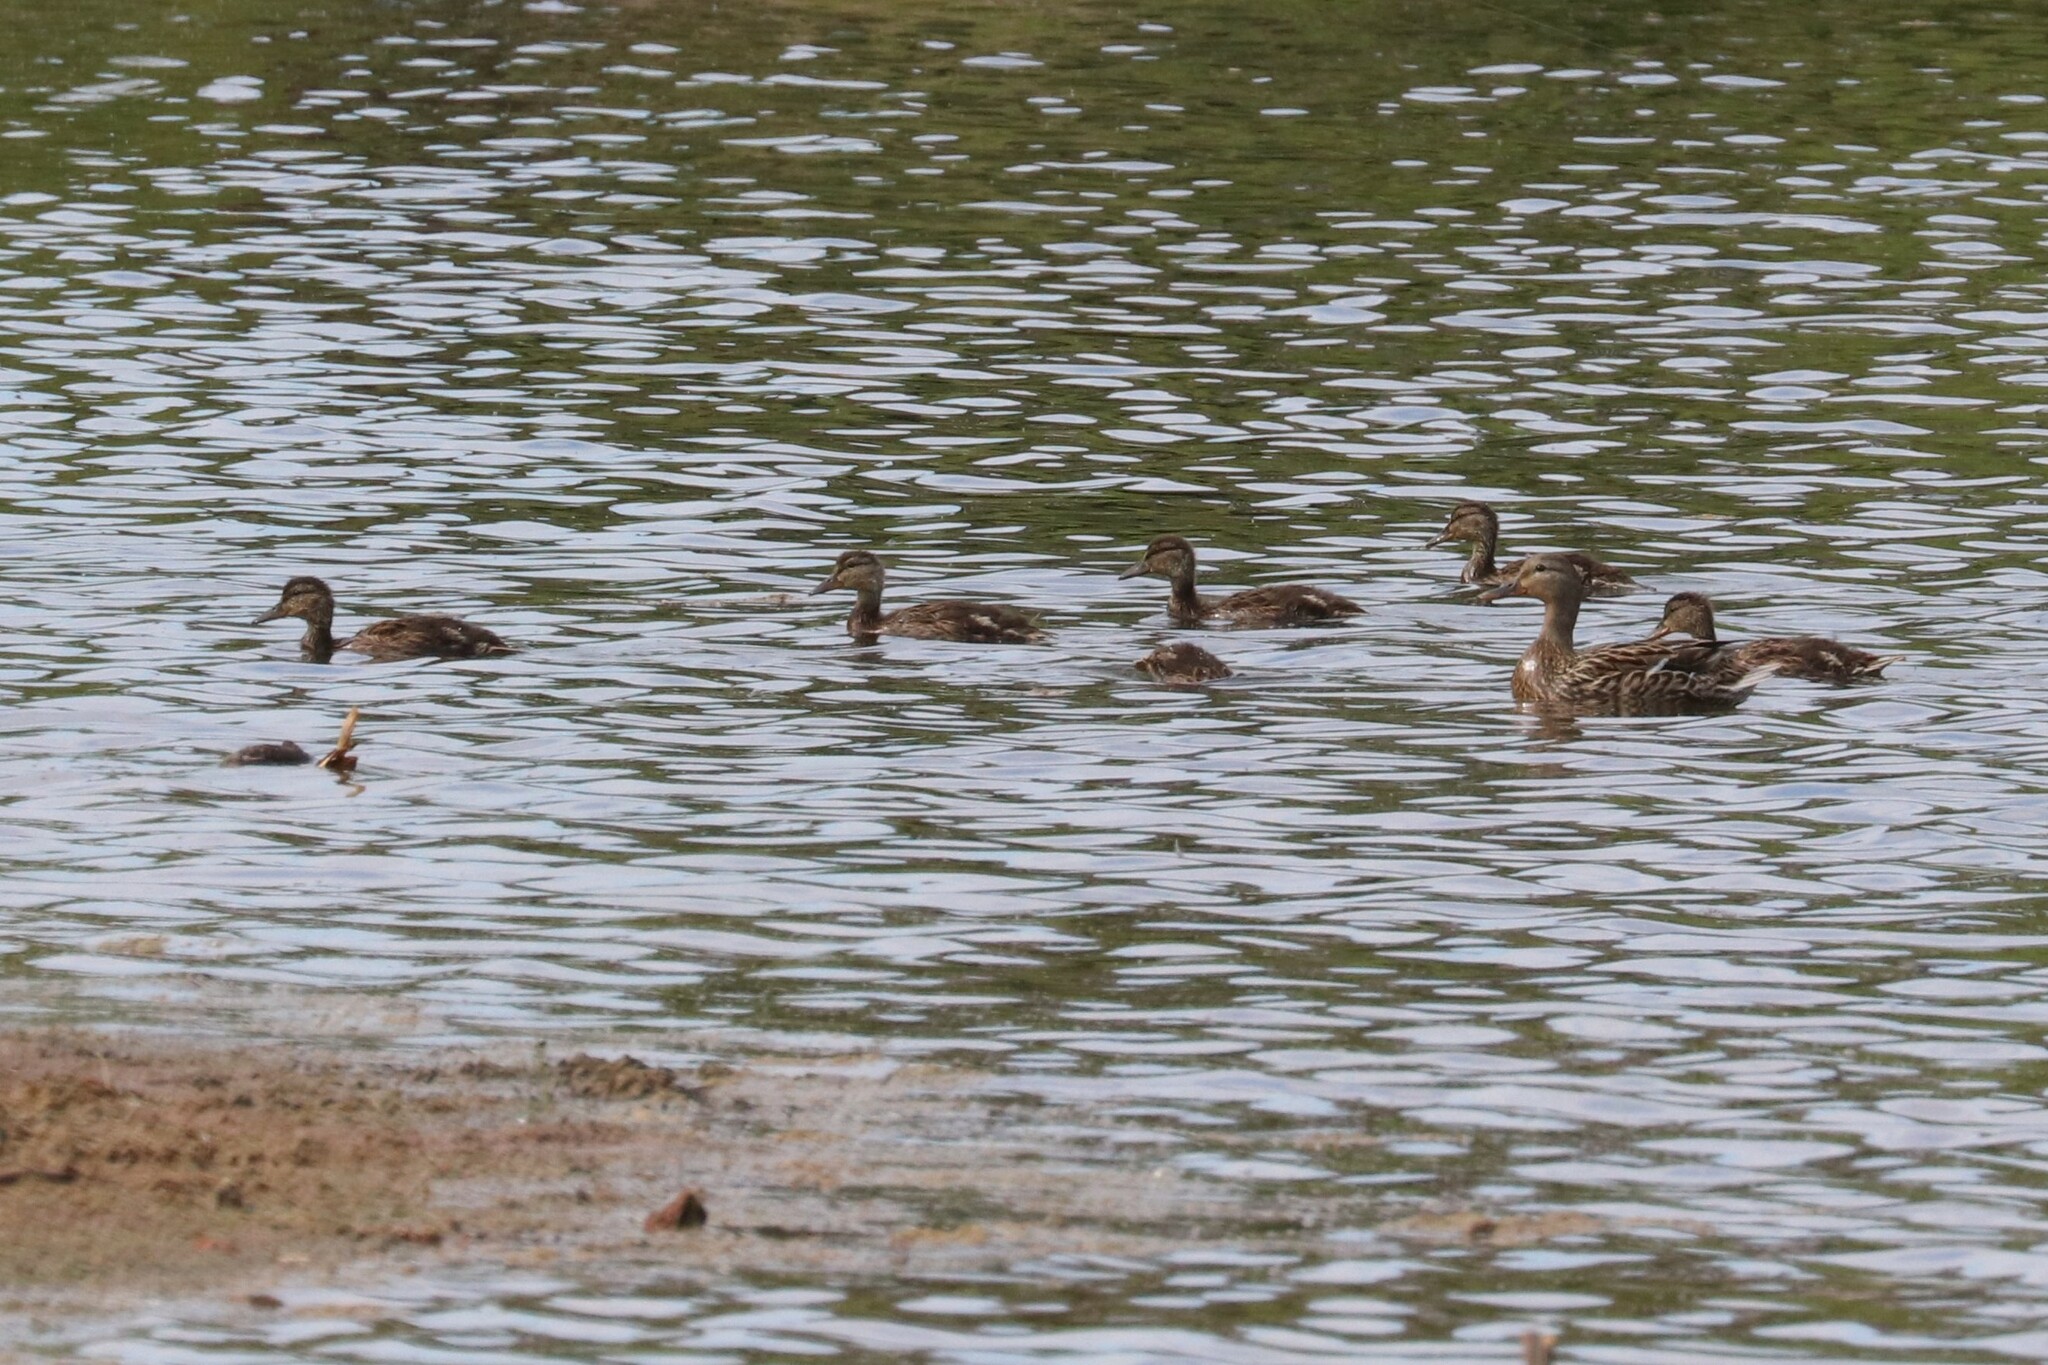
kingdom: Animalia
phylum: Chordata
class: Aves
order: Anseriformes
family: Anatidae
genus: Anas
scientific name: Anas platyrhynchos
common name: Mallard
